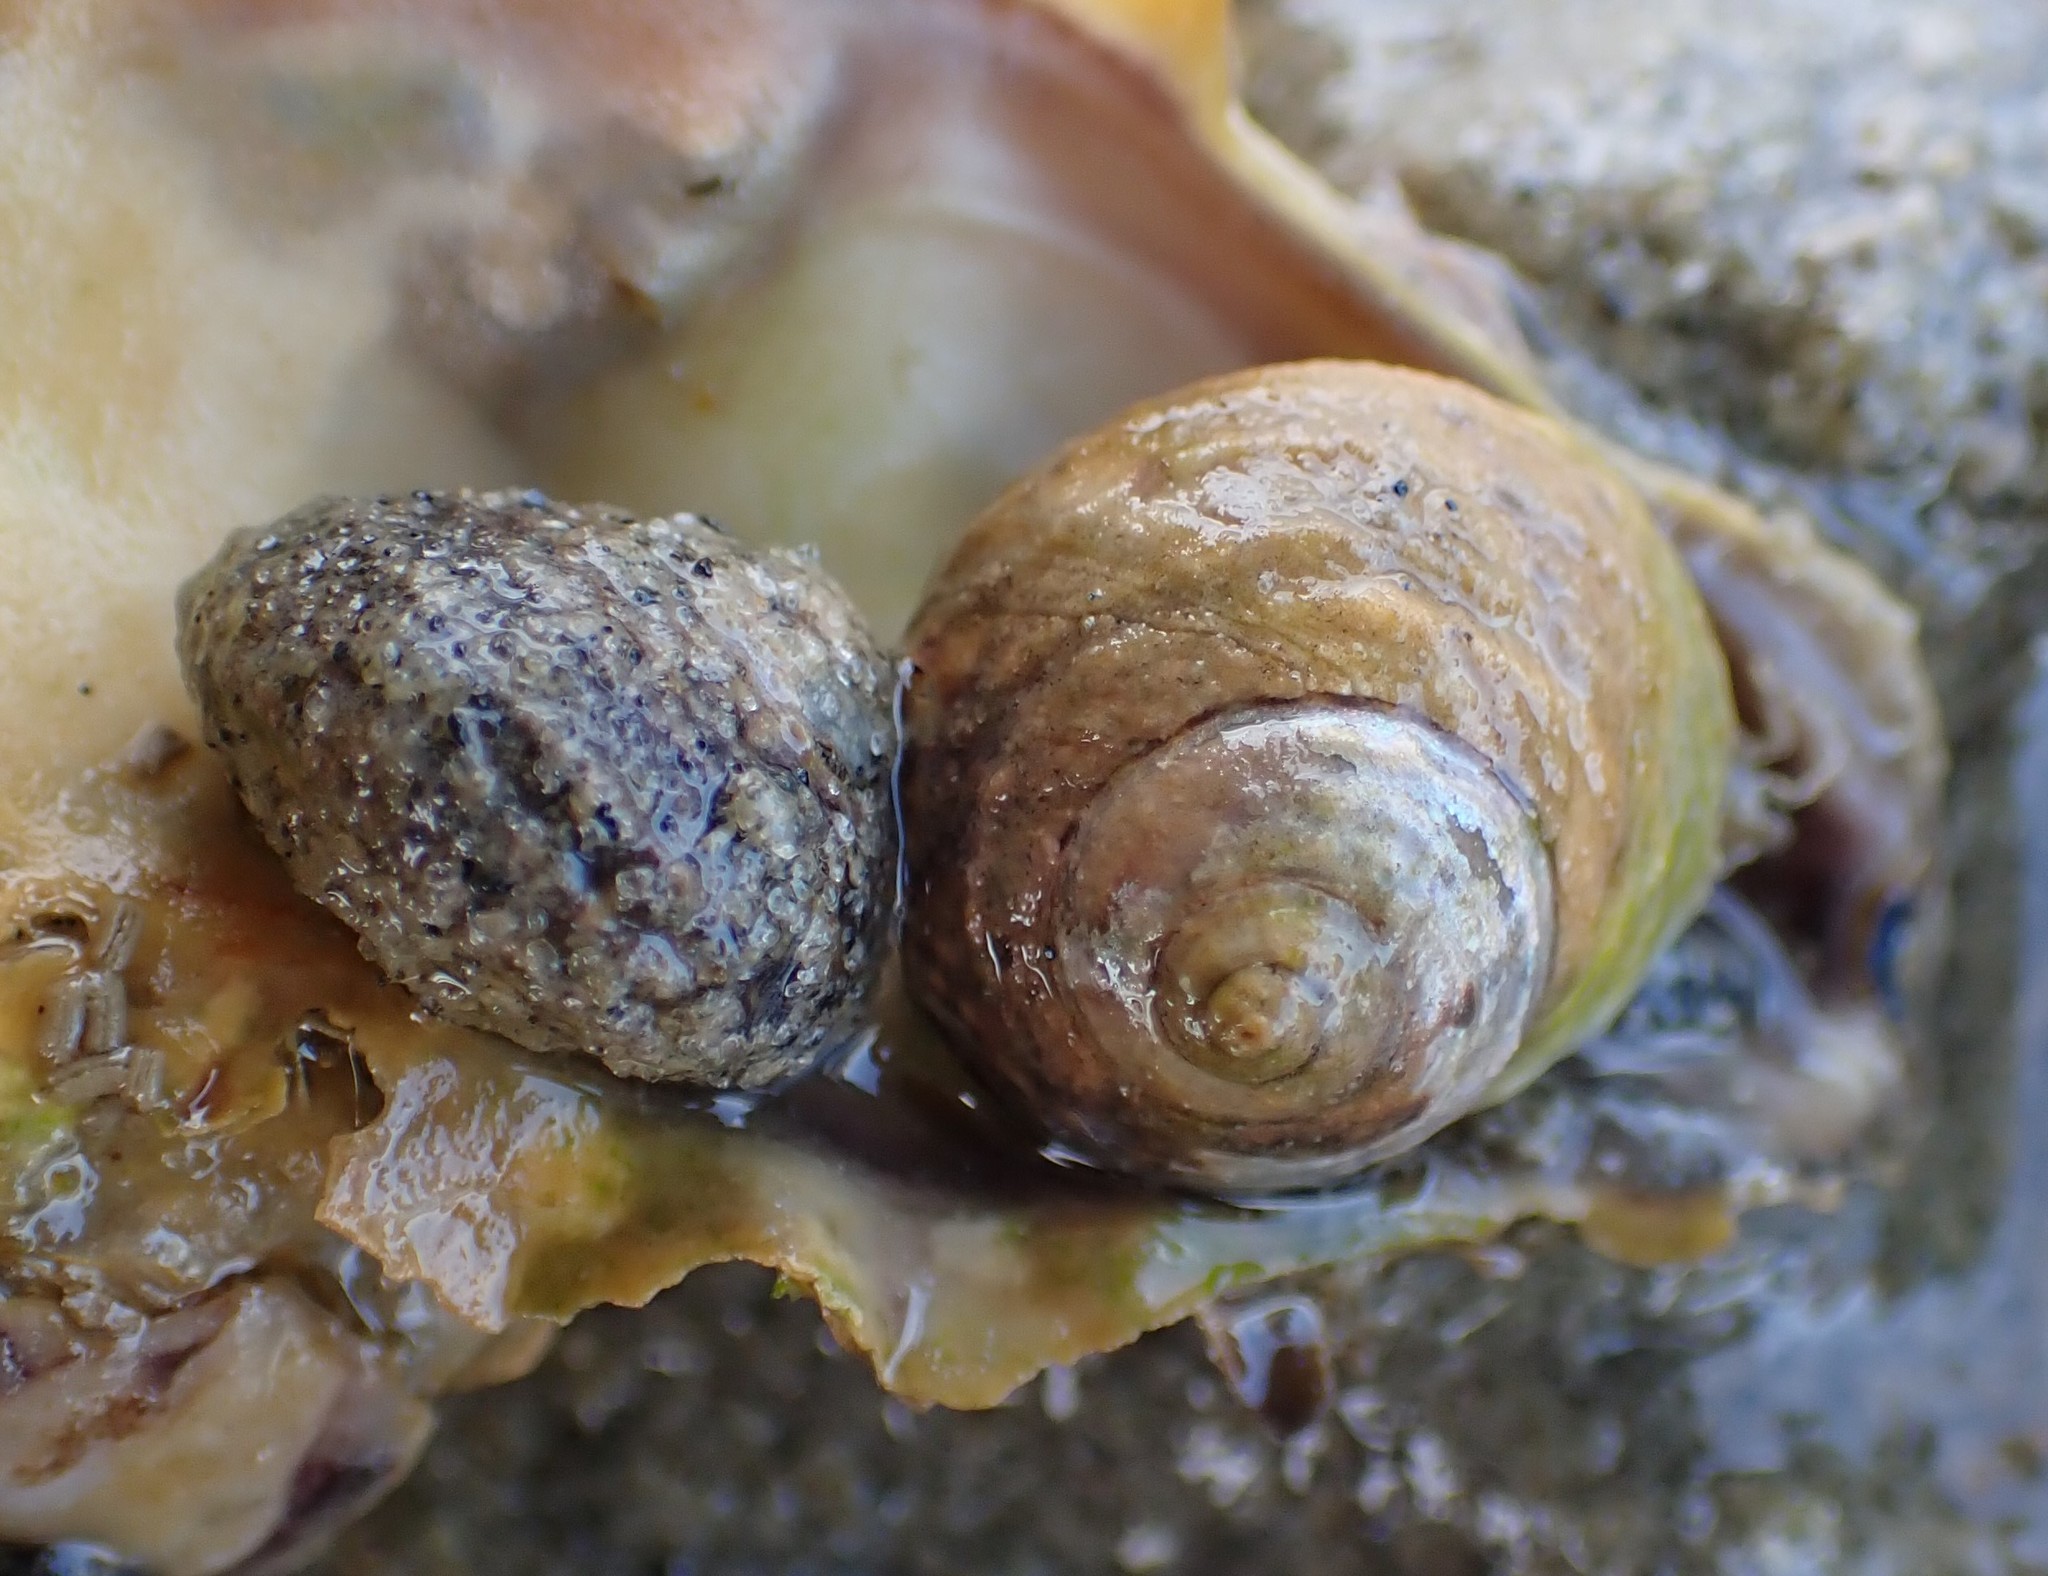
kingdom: Animalia
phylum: Mollusca
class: Gastropoda
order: Trochida
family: Trochidae
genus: Diloma
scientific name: Diloma subrostratum
